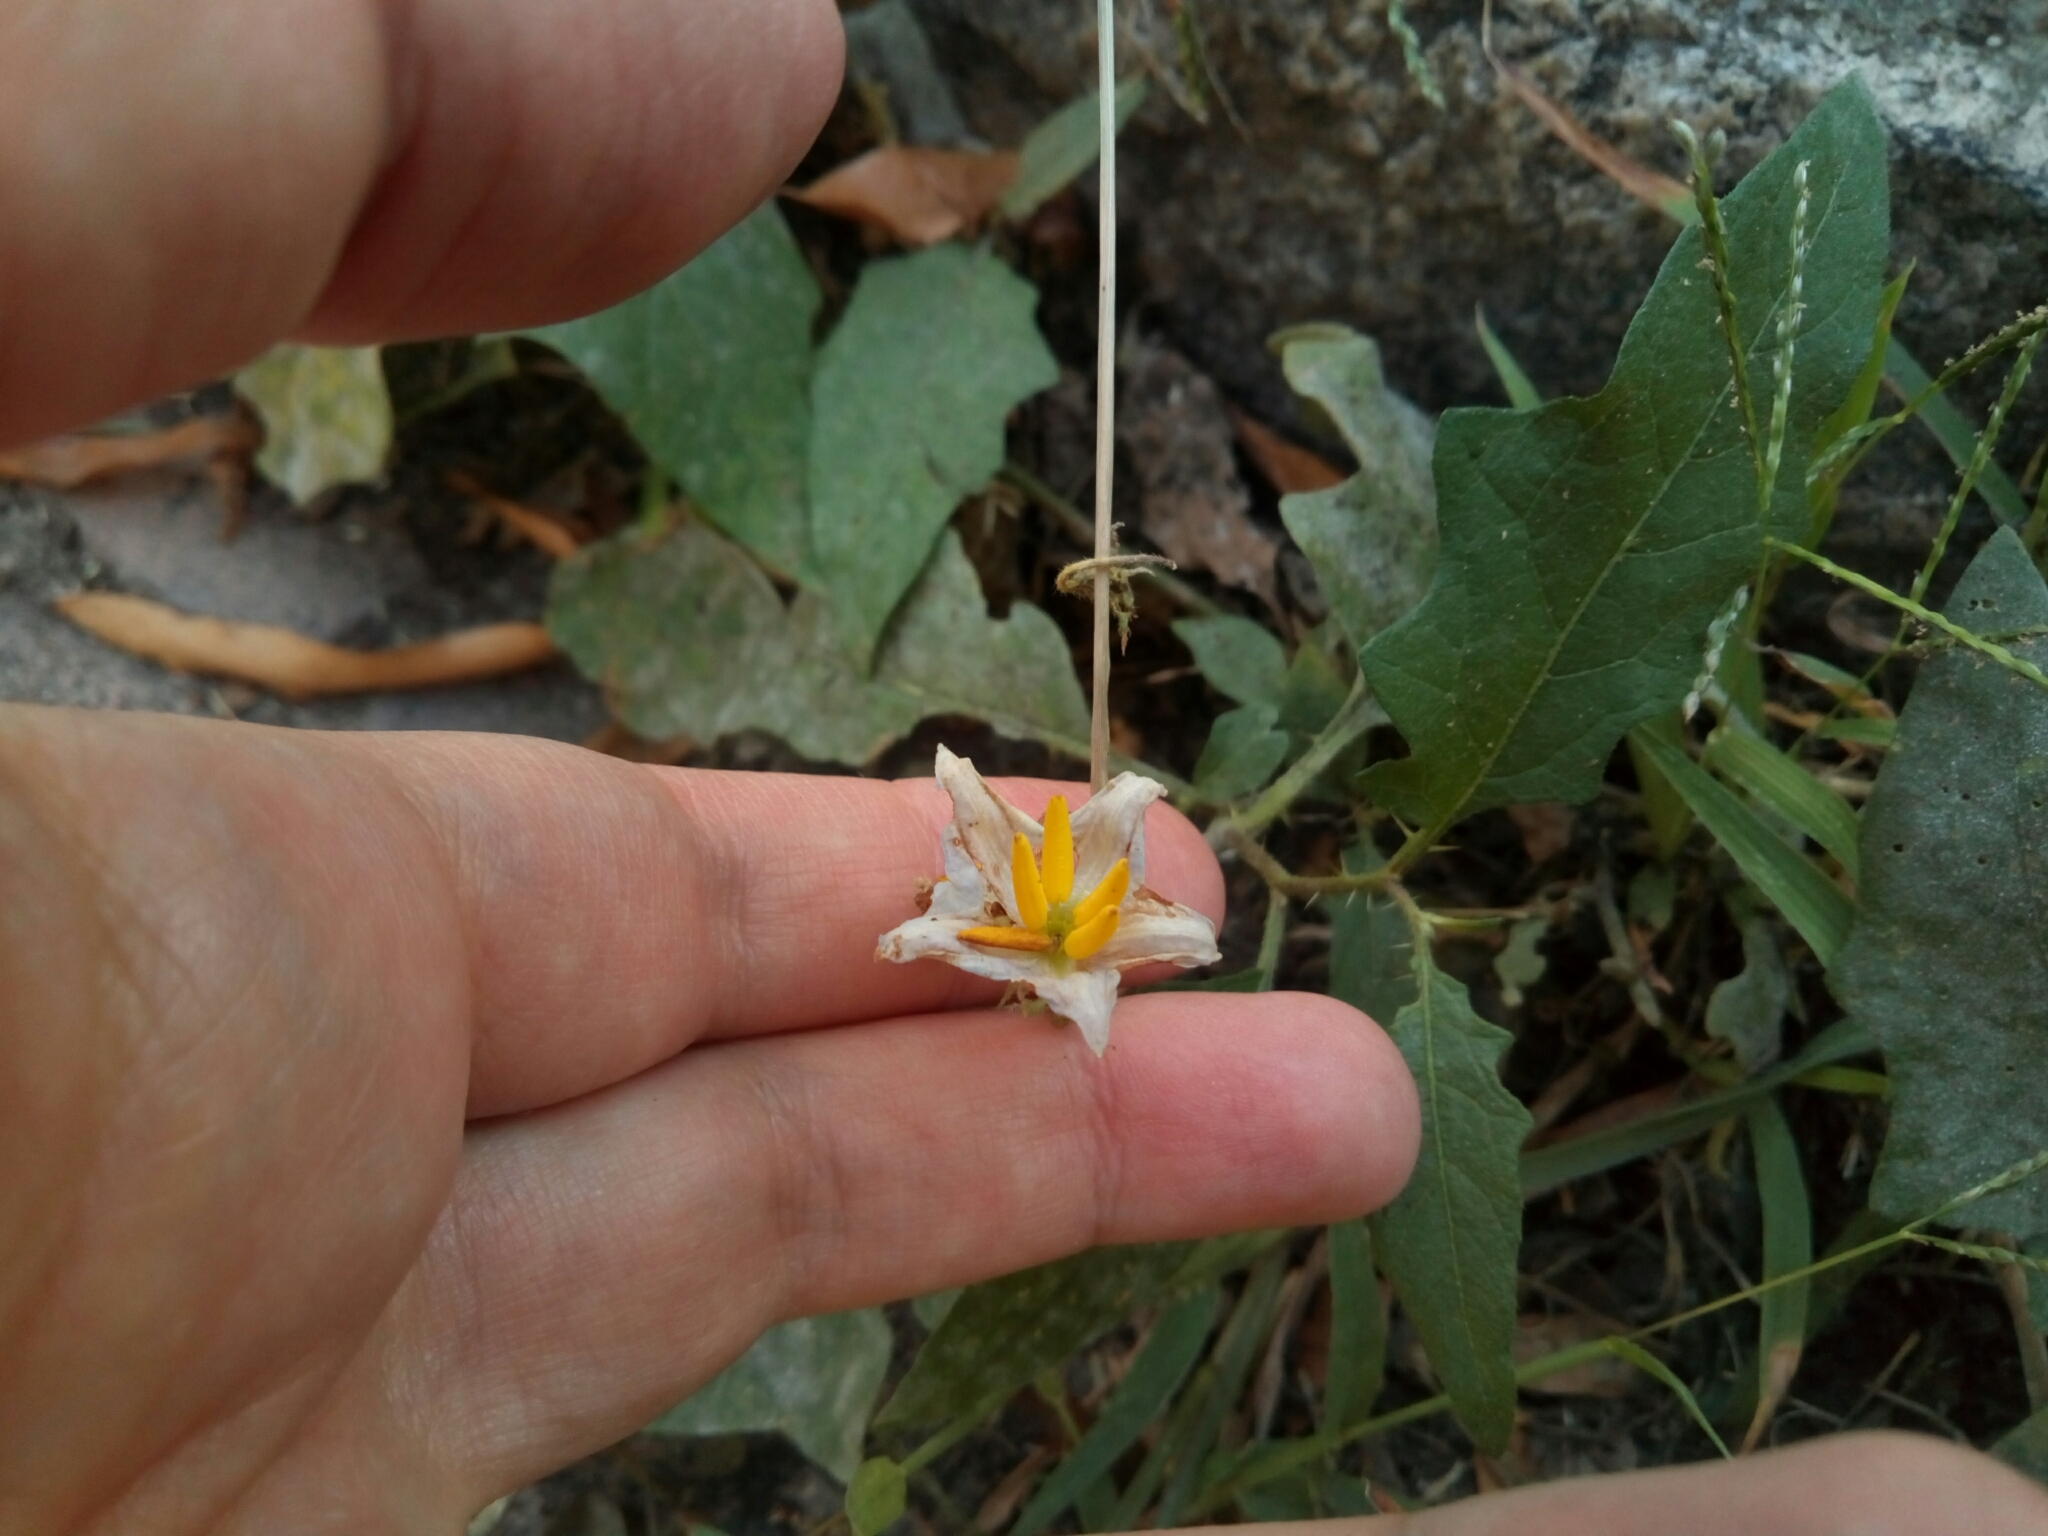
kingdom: Plantae
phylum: Tracheophyta
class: Magnoliopsida
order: Solanales
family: Solanaceae
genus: Solanum
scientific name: Solanum carolinense
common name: Horse-nettle
